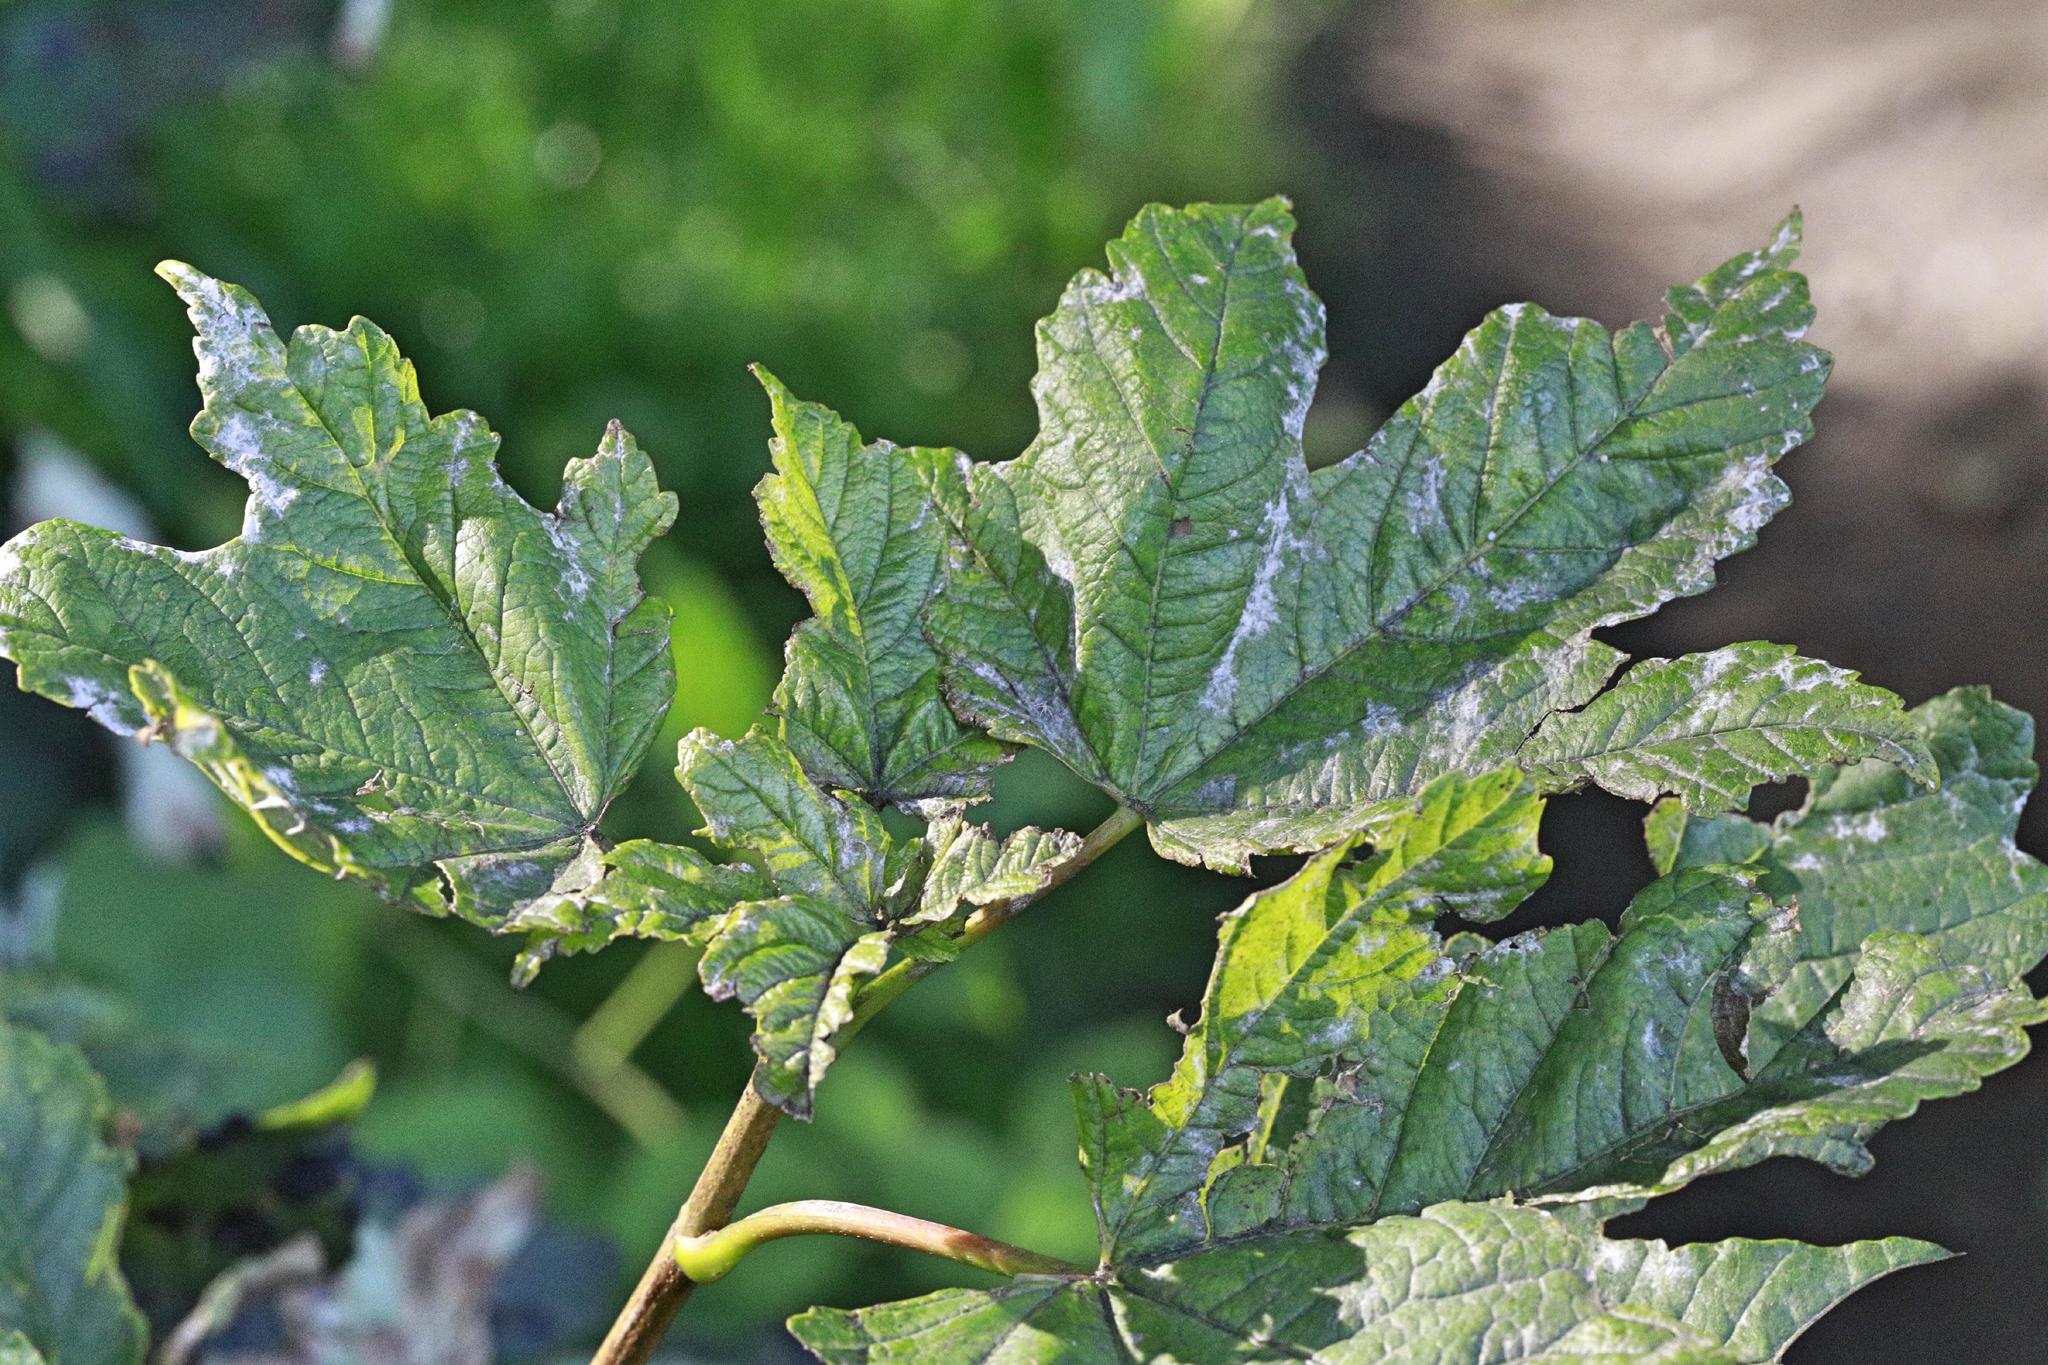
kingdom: Fungi
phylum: Ascomycota
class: Leotiomycetes
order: Helotiales
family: Erysiphaceae
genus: Sawadaea
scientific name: Sawadaea bicornis
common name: Maple mildew
